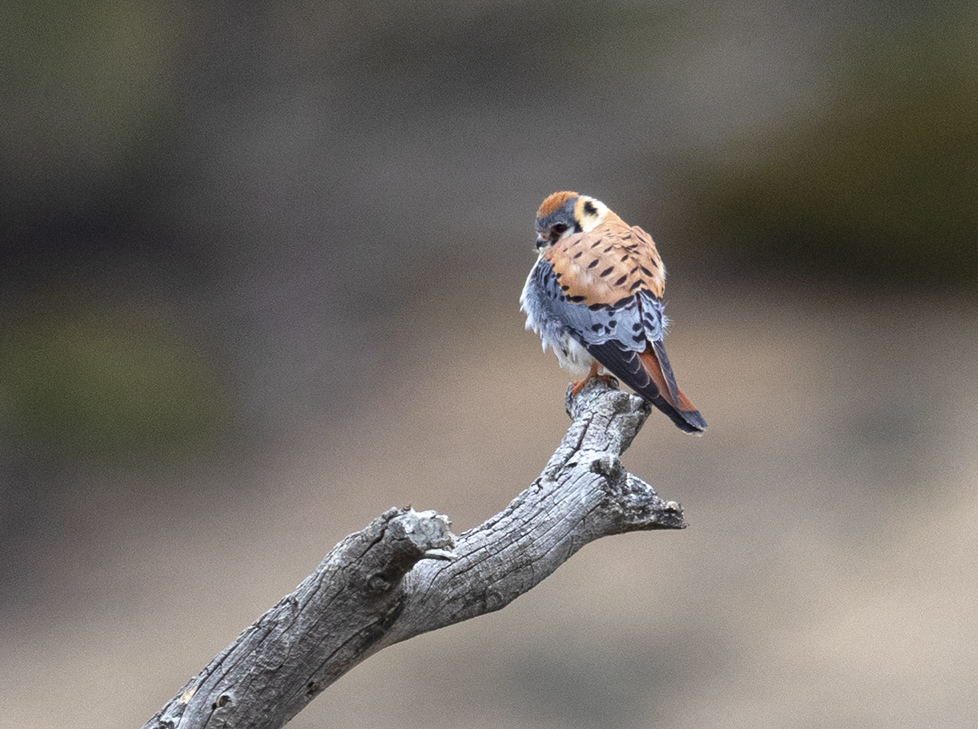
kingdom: Animalia
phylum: Chordata
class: Aves
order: Falconiformes
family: Falconidae
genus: Falco
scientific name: Falco sparverius
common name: American kestrel
